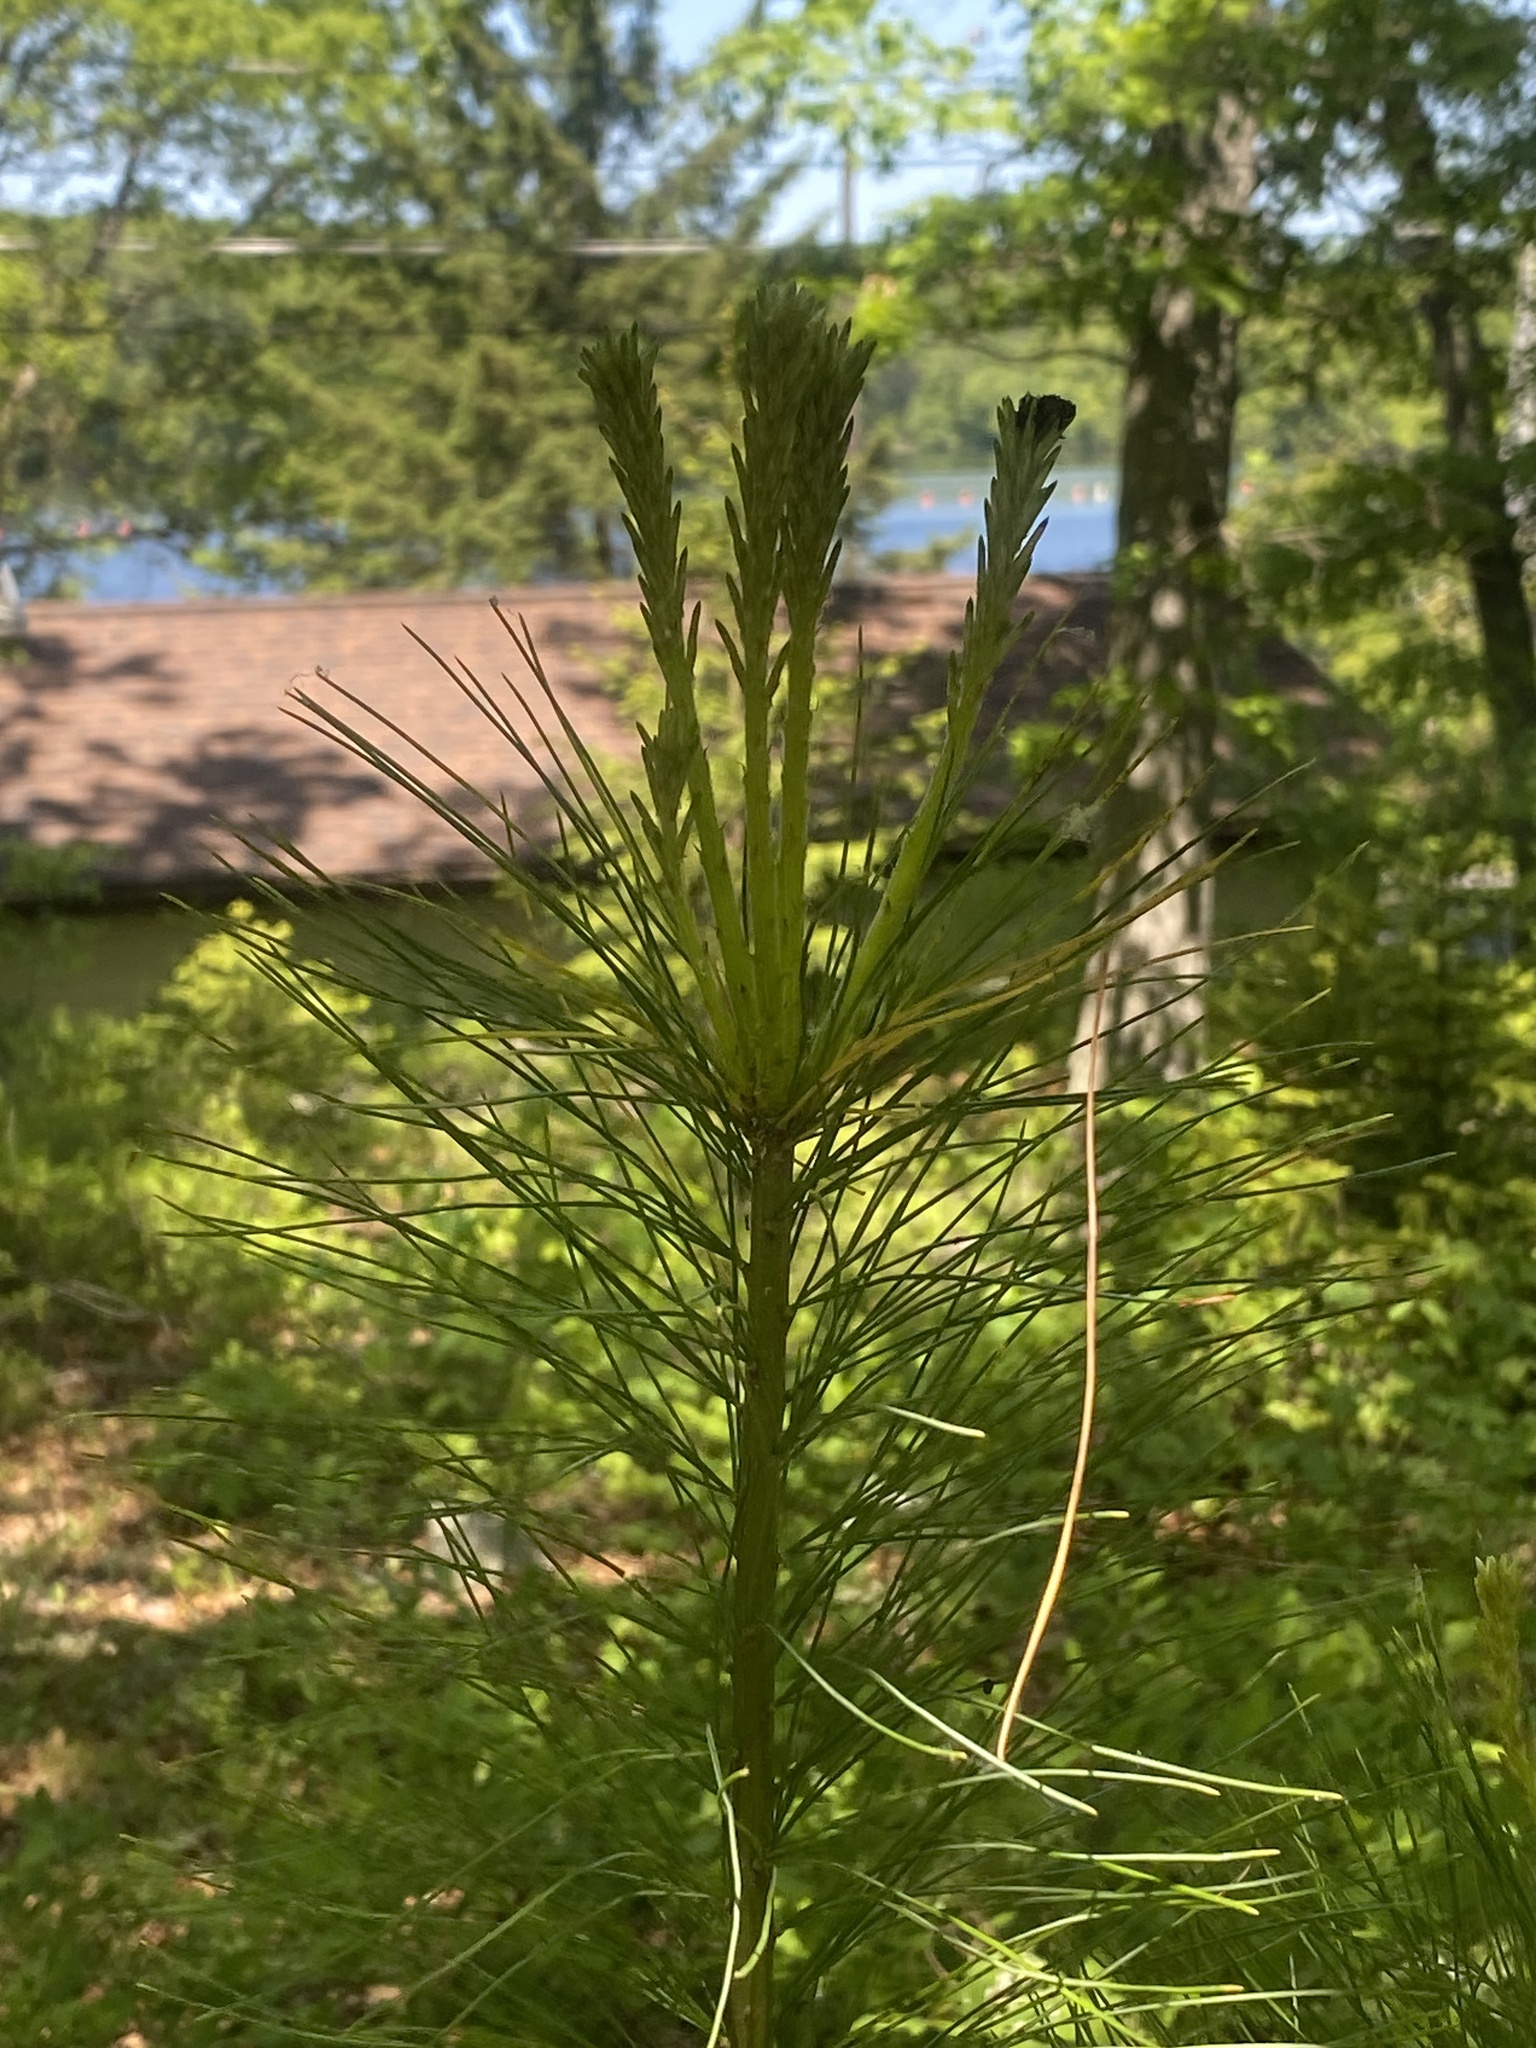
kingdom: Plantae
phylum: Tracheophyta
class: Pinopsida
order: Pinales
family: Pinaceae
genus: Pinus
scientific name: Pinus strobus
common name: Weymouth pine
